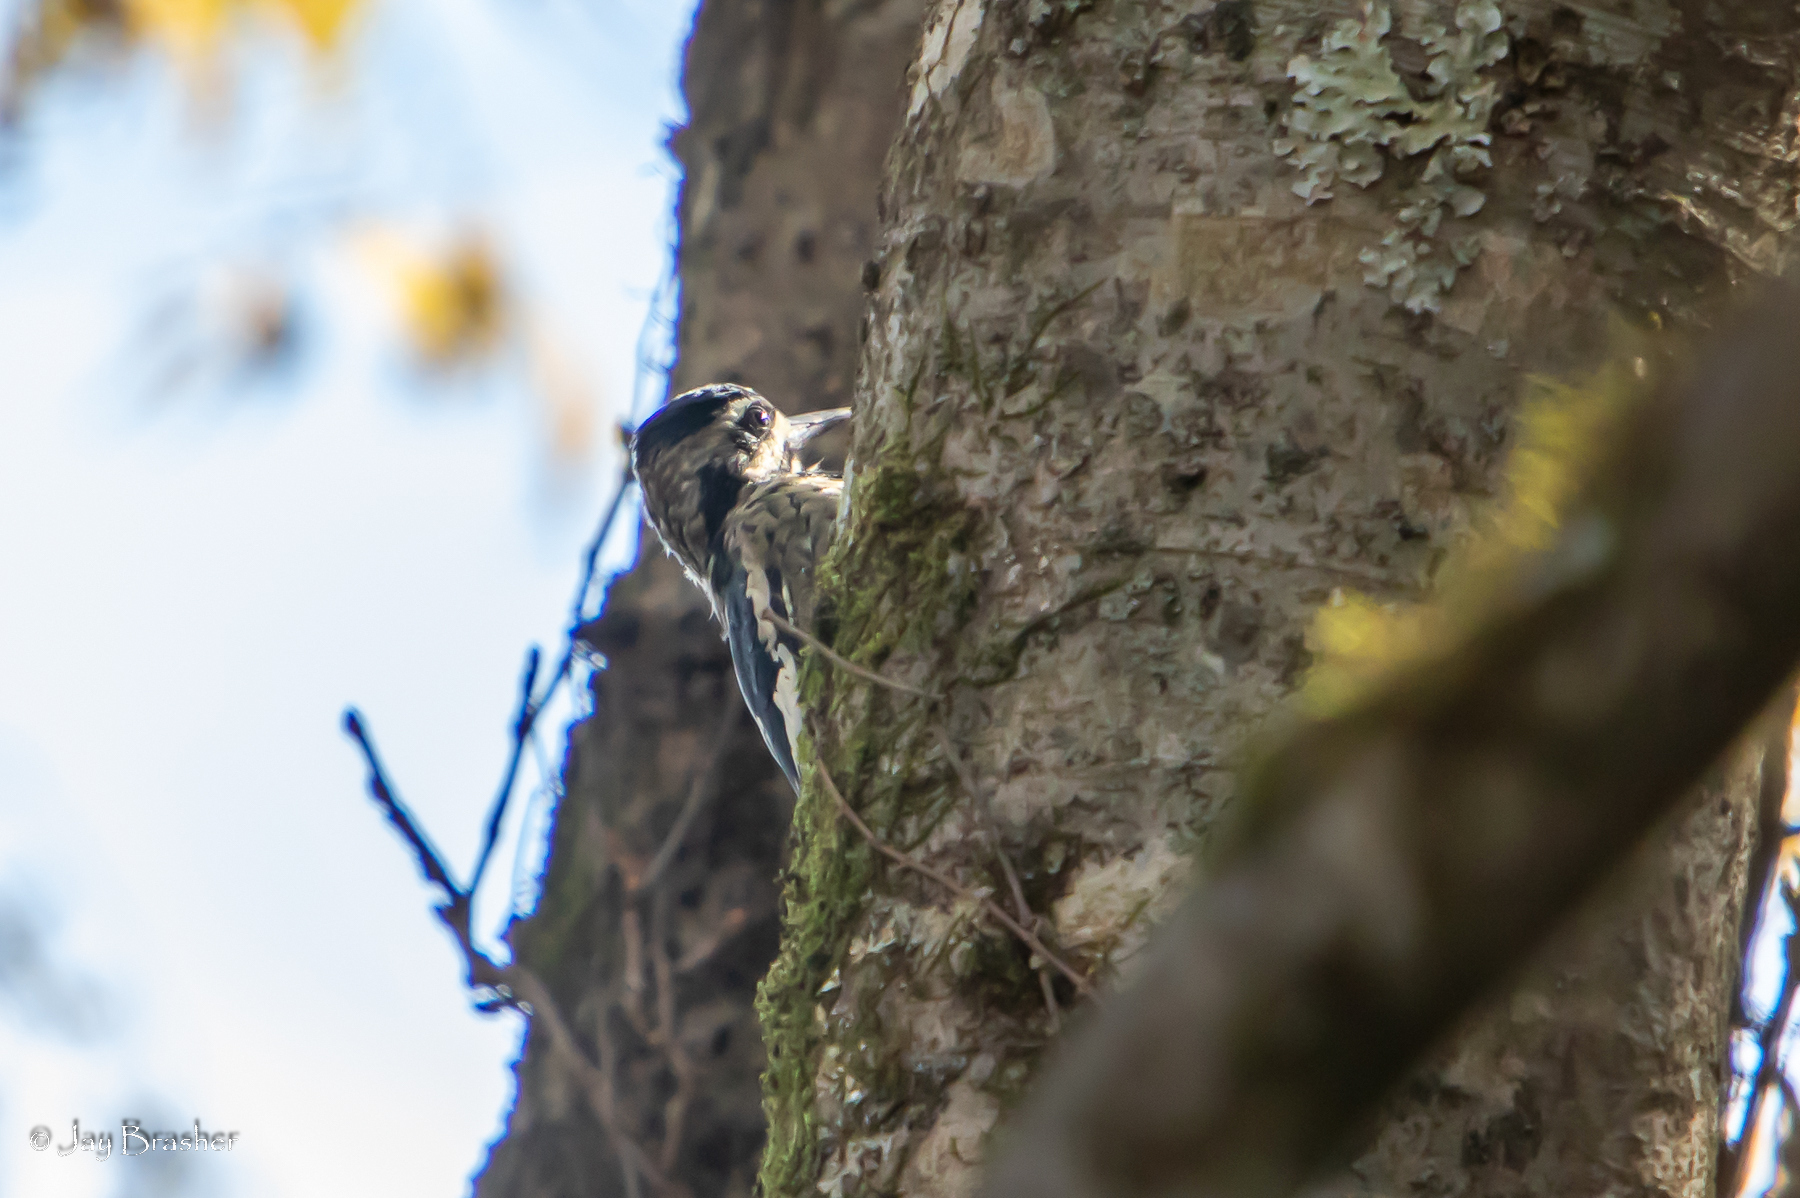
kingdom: Animalia
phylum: Chordata
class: Aves
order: Piciformes
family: Picidae
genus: Sphyrapicus
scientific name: Sphyrapicus varius
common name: Yellow-bellied sapsucker
